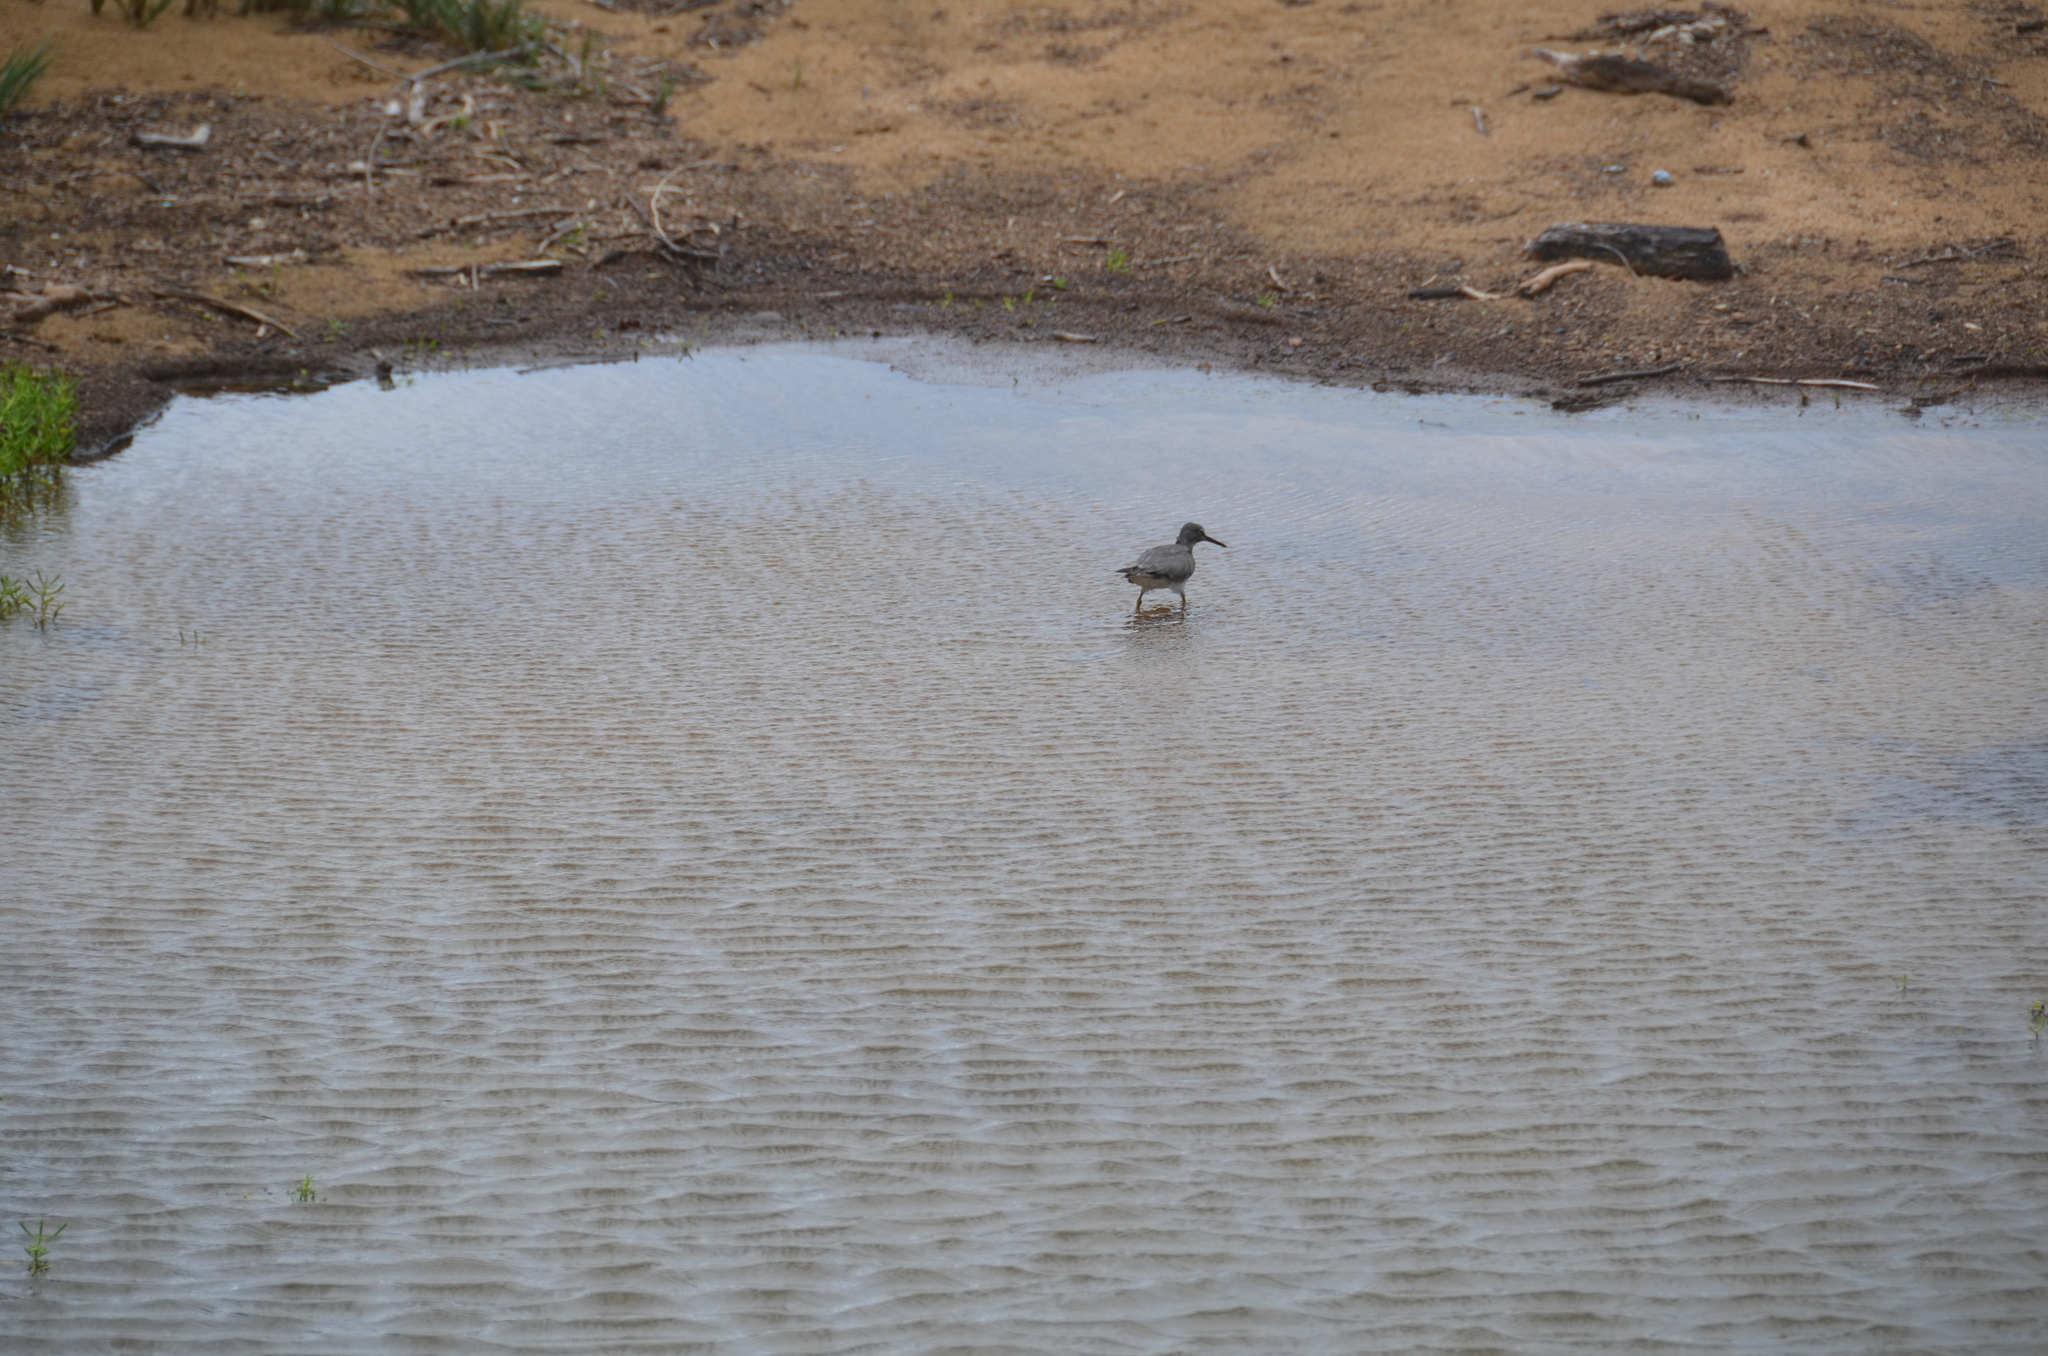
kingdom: Animalia
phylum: Chordata
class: Aves
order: Charadriiformes
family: Scolopacidae
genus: Tringa
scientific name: Tringa incana
